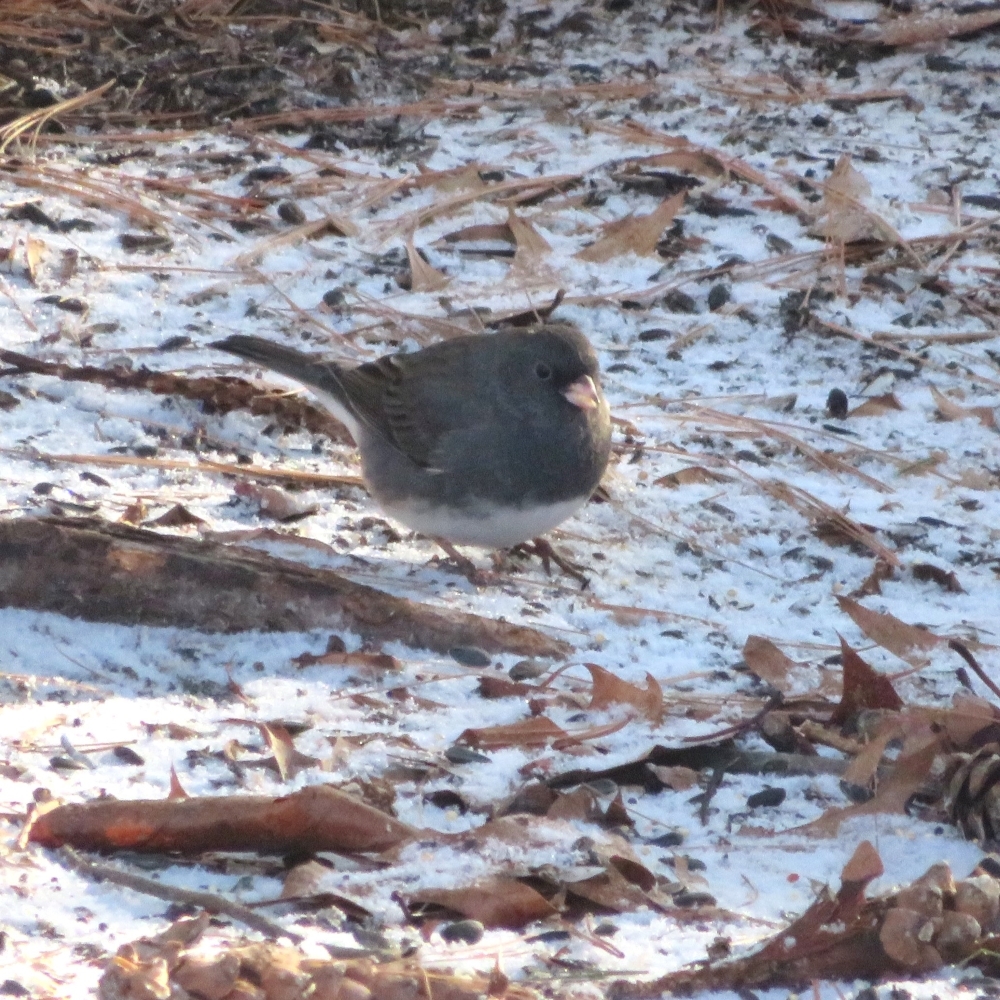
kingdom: Animalia
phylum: Chordata
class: Aves
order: Passeriformes
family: Passerellidae
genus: Junco
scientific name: Junco hyemalis
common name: Dark-eyed junco
